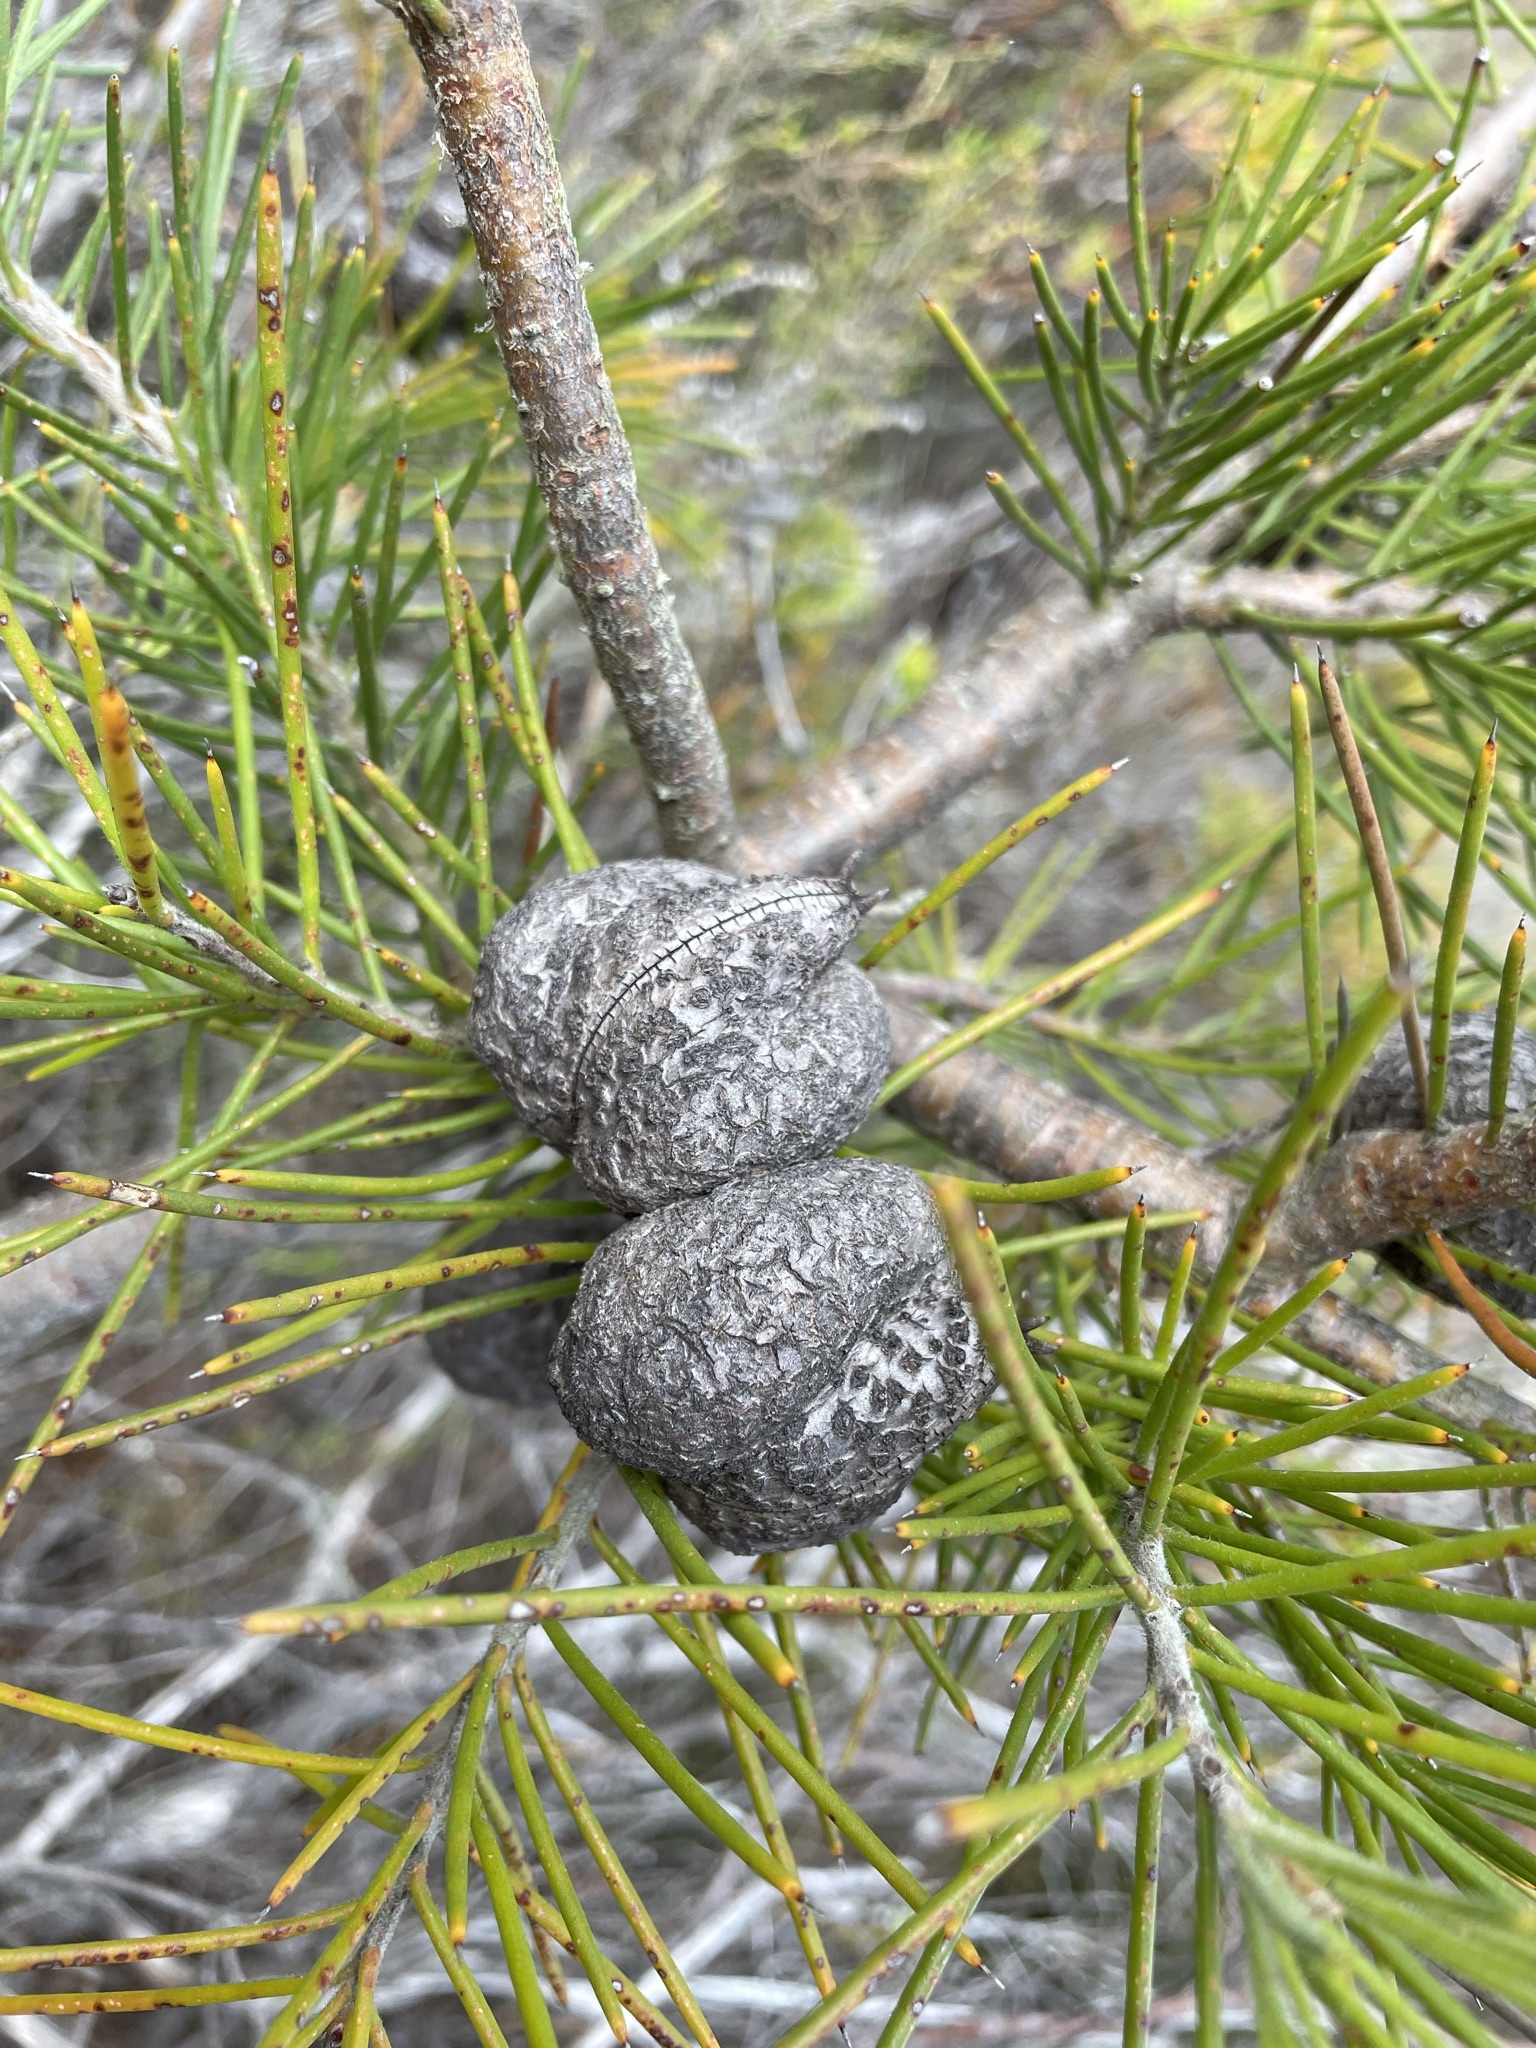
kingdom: Plantae
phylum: Tracheophyta
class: Magnoliopsida
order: Proteales
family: Proteaceae
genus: Hakea
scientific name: Hakea gibbosa
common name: Rock hakea
